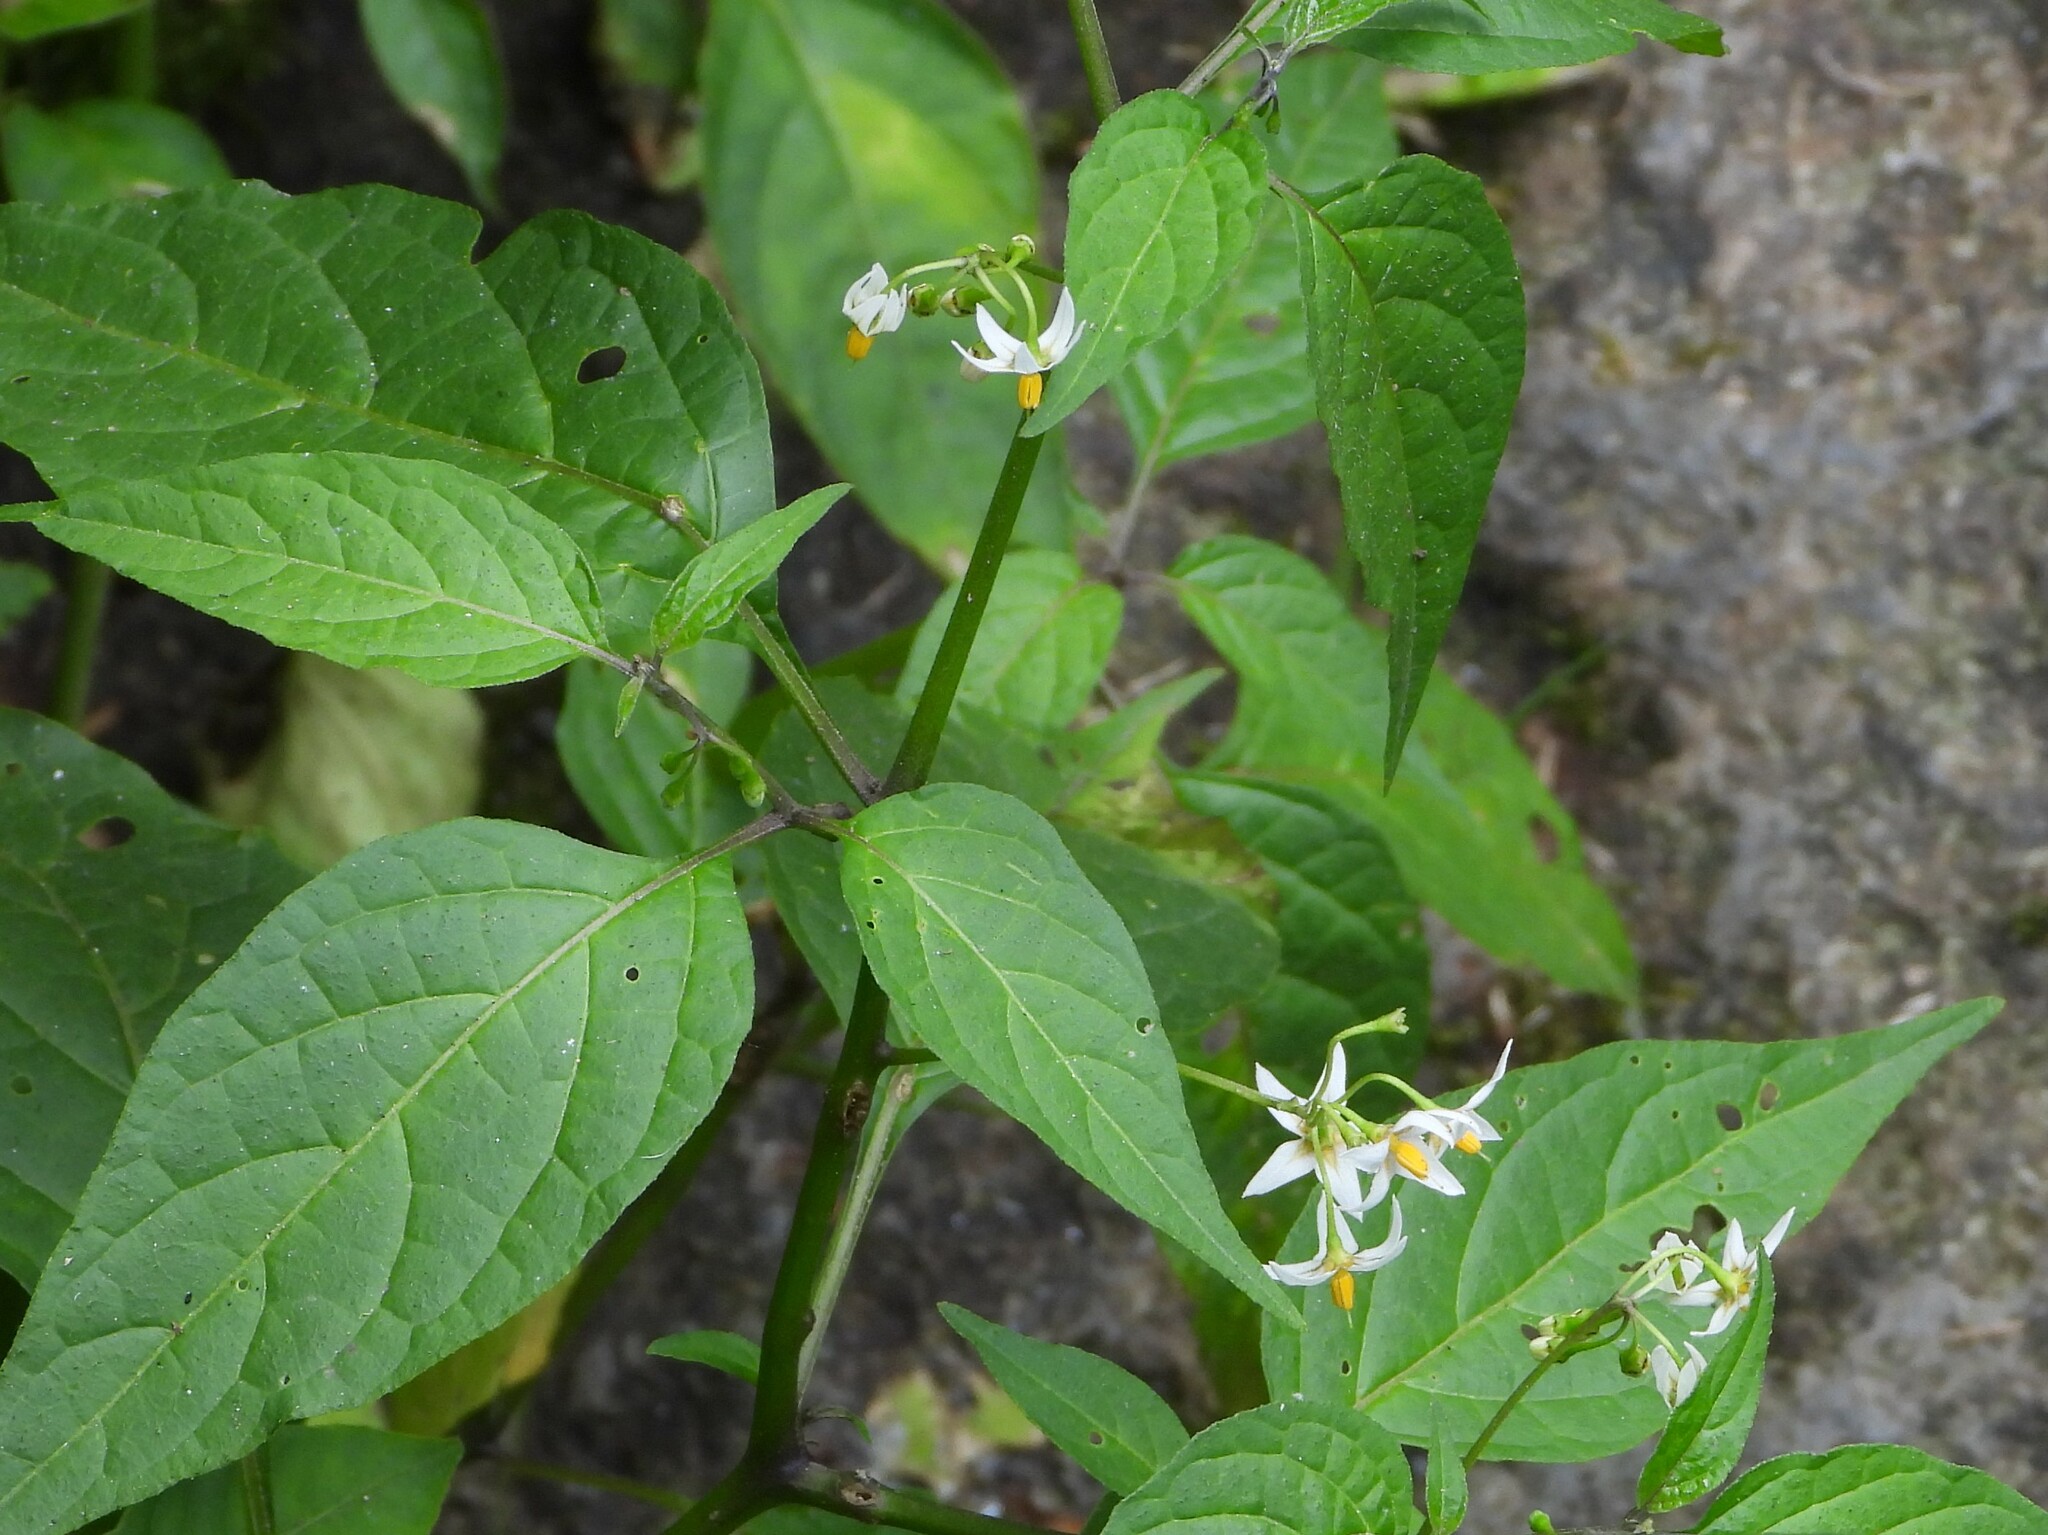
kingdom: Plantae
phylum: Tracheophyta
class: Magnoliopsida
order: Solanales
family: Solanaceae
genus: Solanum
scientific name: Solanum macrotonum
